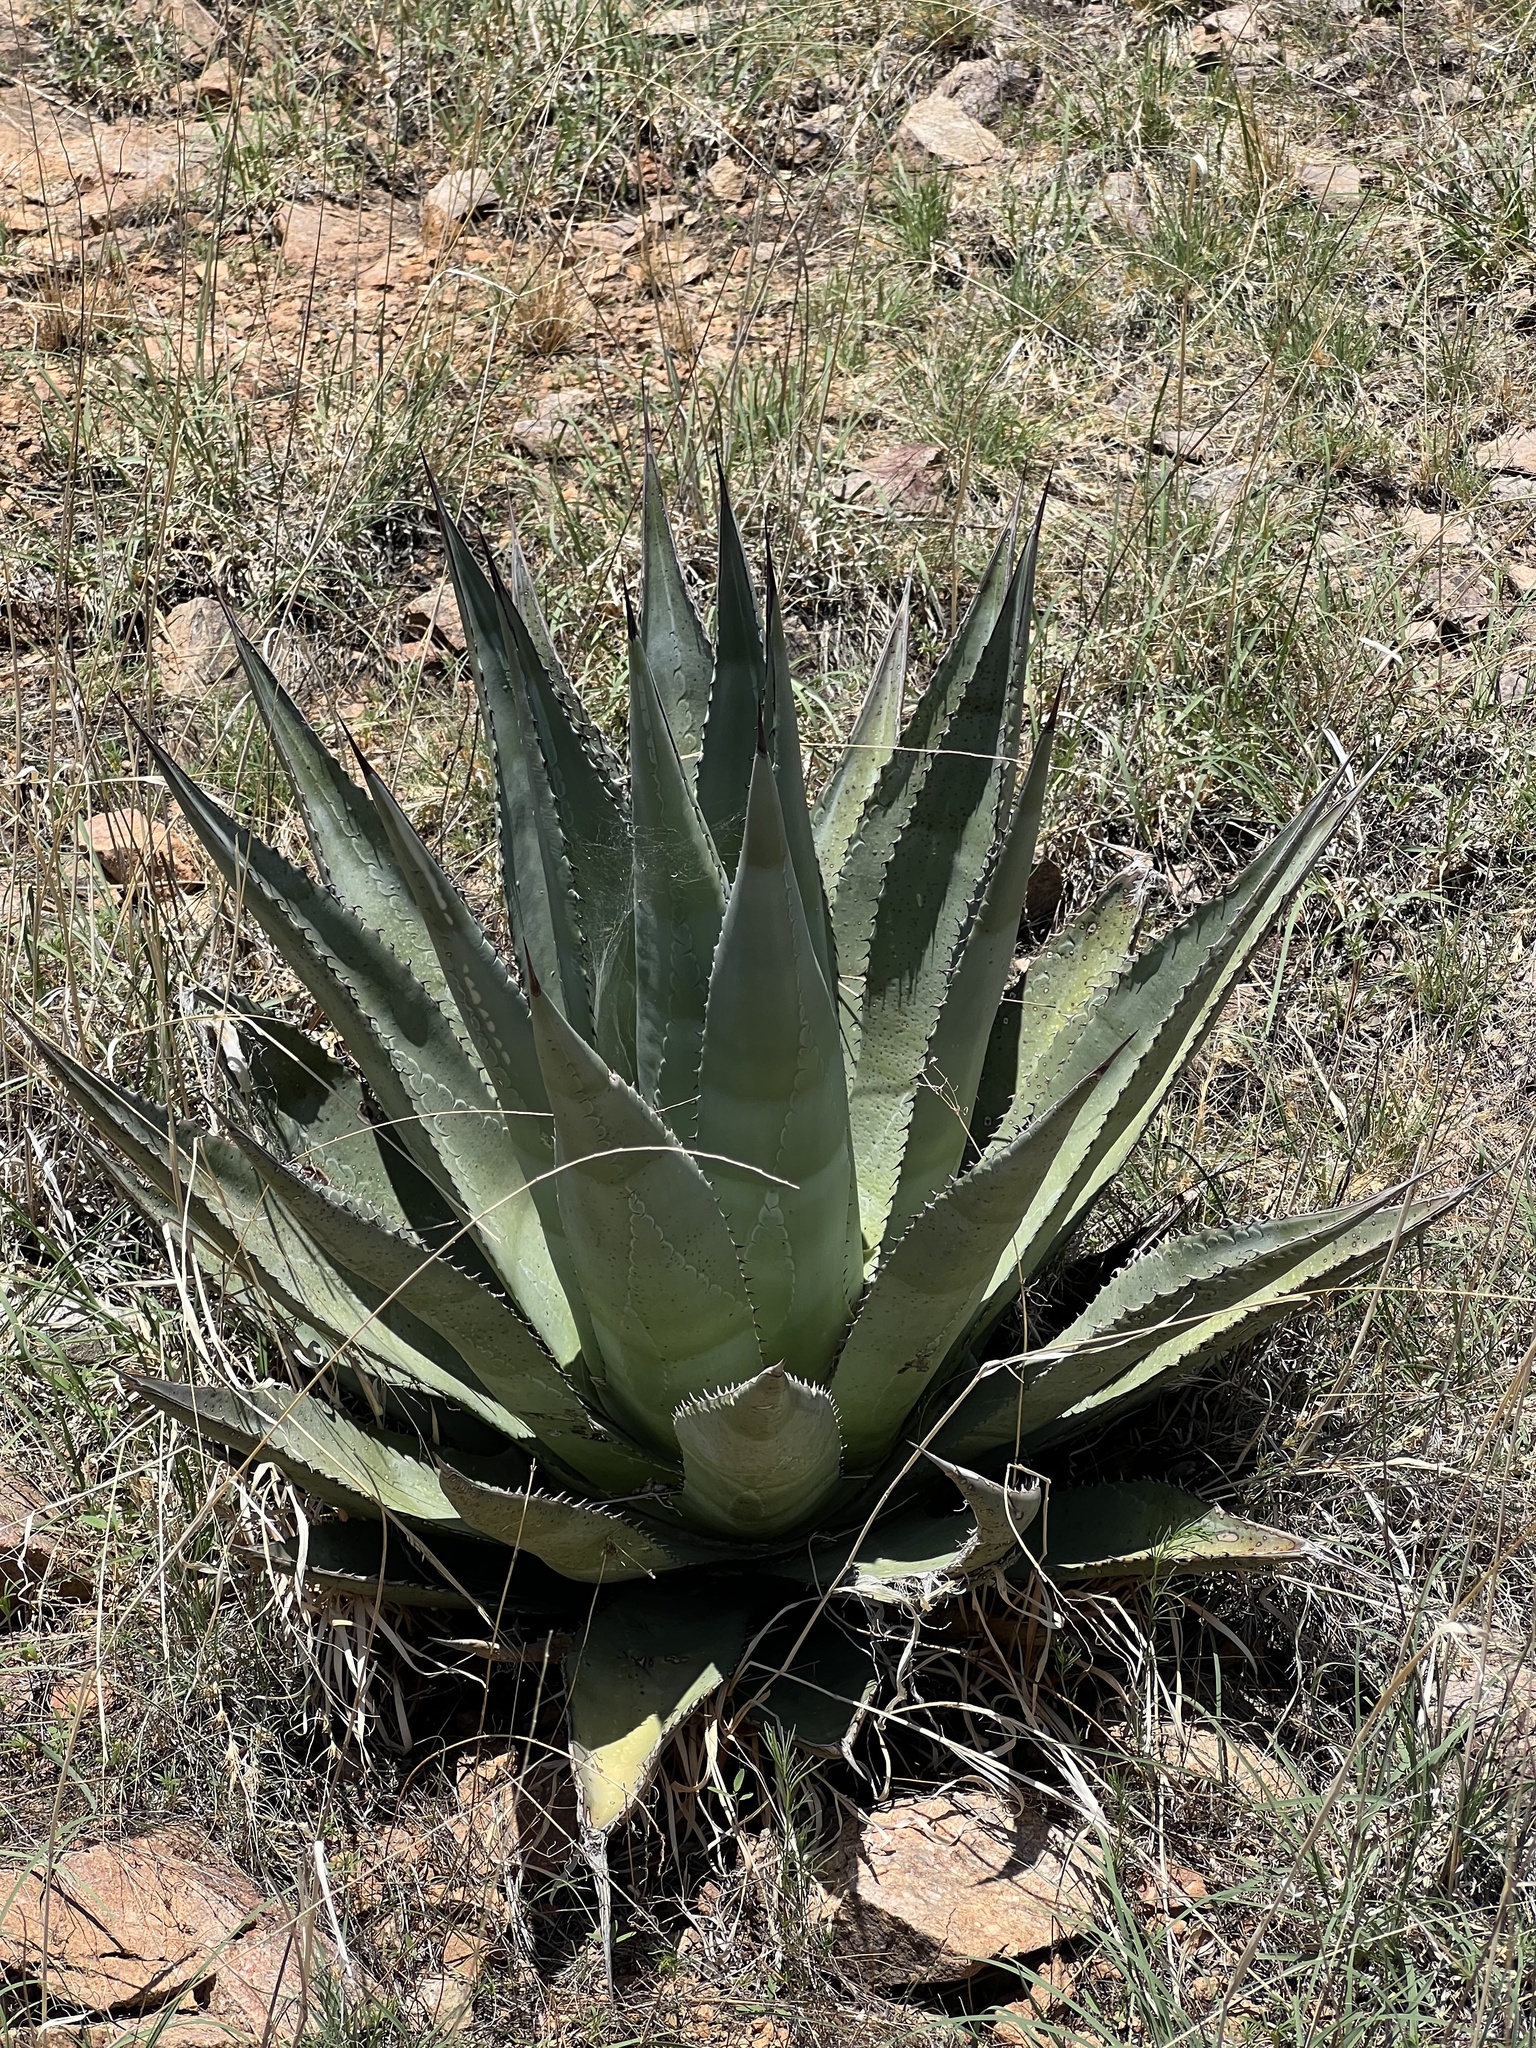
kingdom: Plantae
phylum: Tracheophyta
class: Liliopsida
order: Asparagales
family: Asparagaceae
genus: Agave
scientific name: Agave palmeri
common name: Palmer agave
